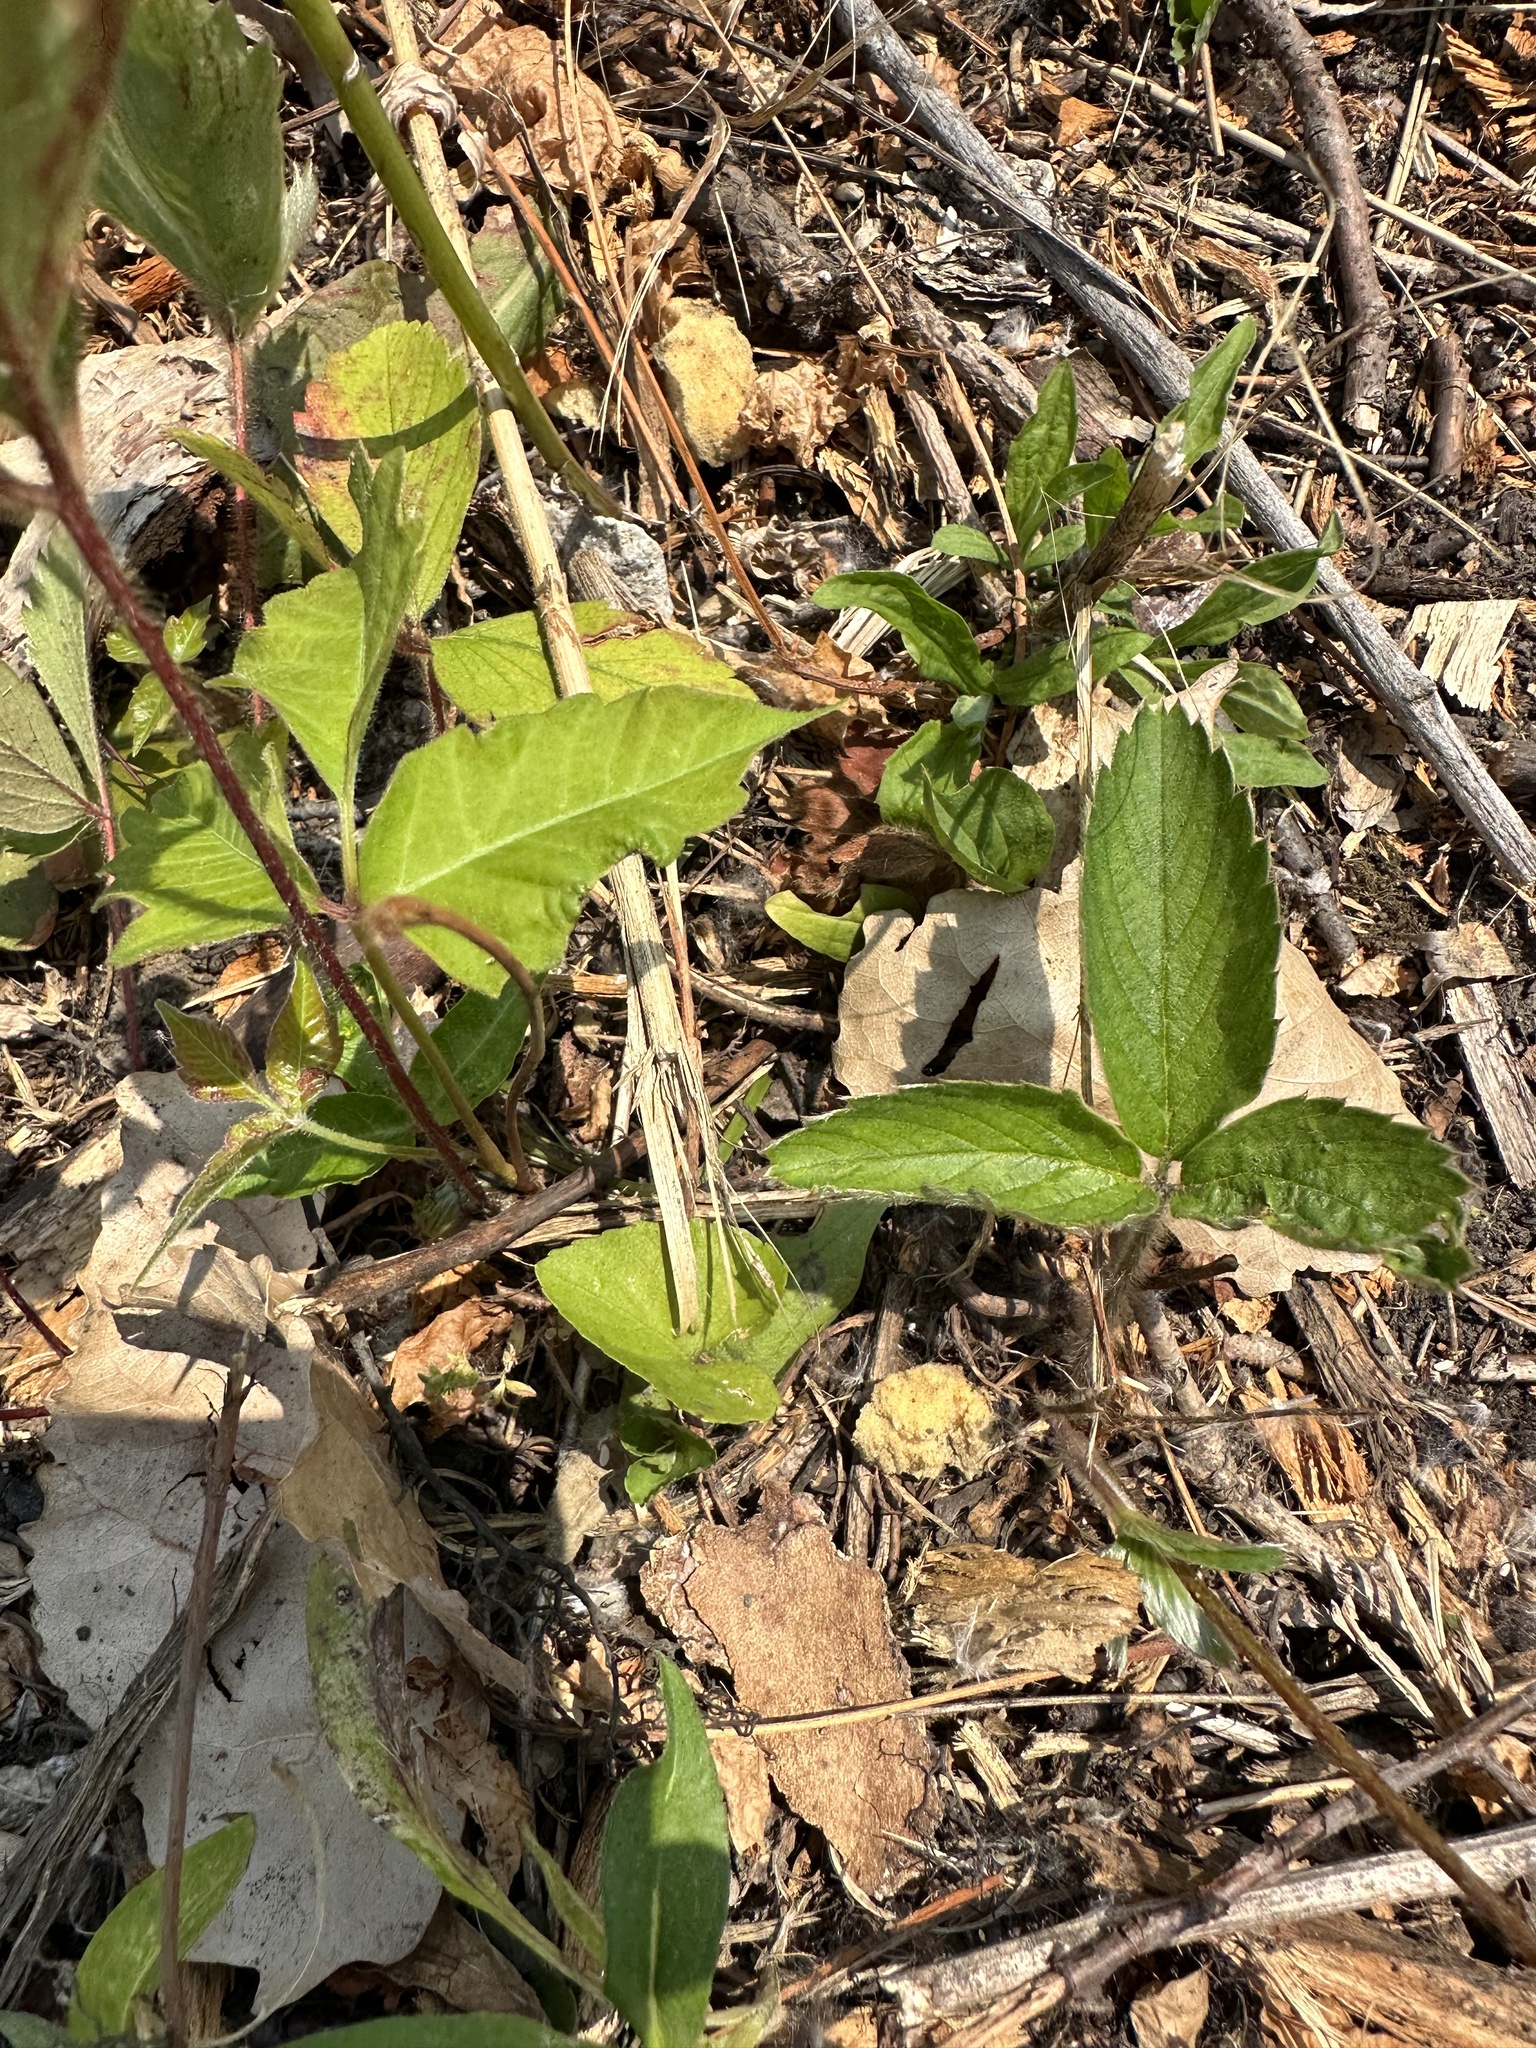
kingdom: Plantae
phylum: Tracheophyta
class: Magnoliopsida
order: Rosales
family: Rosaceae
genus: Fragaria
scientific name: Fragaria virginiana
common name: Thickleaved wild strawberry
